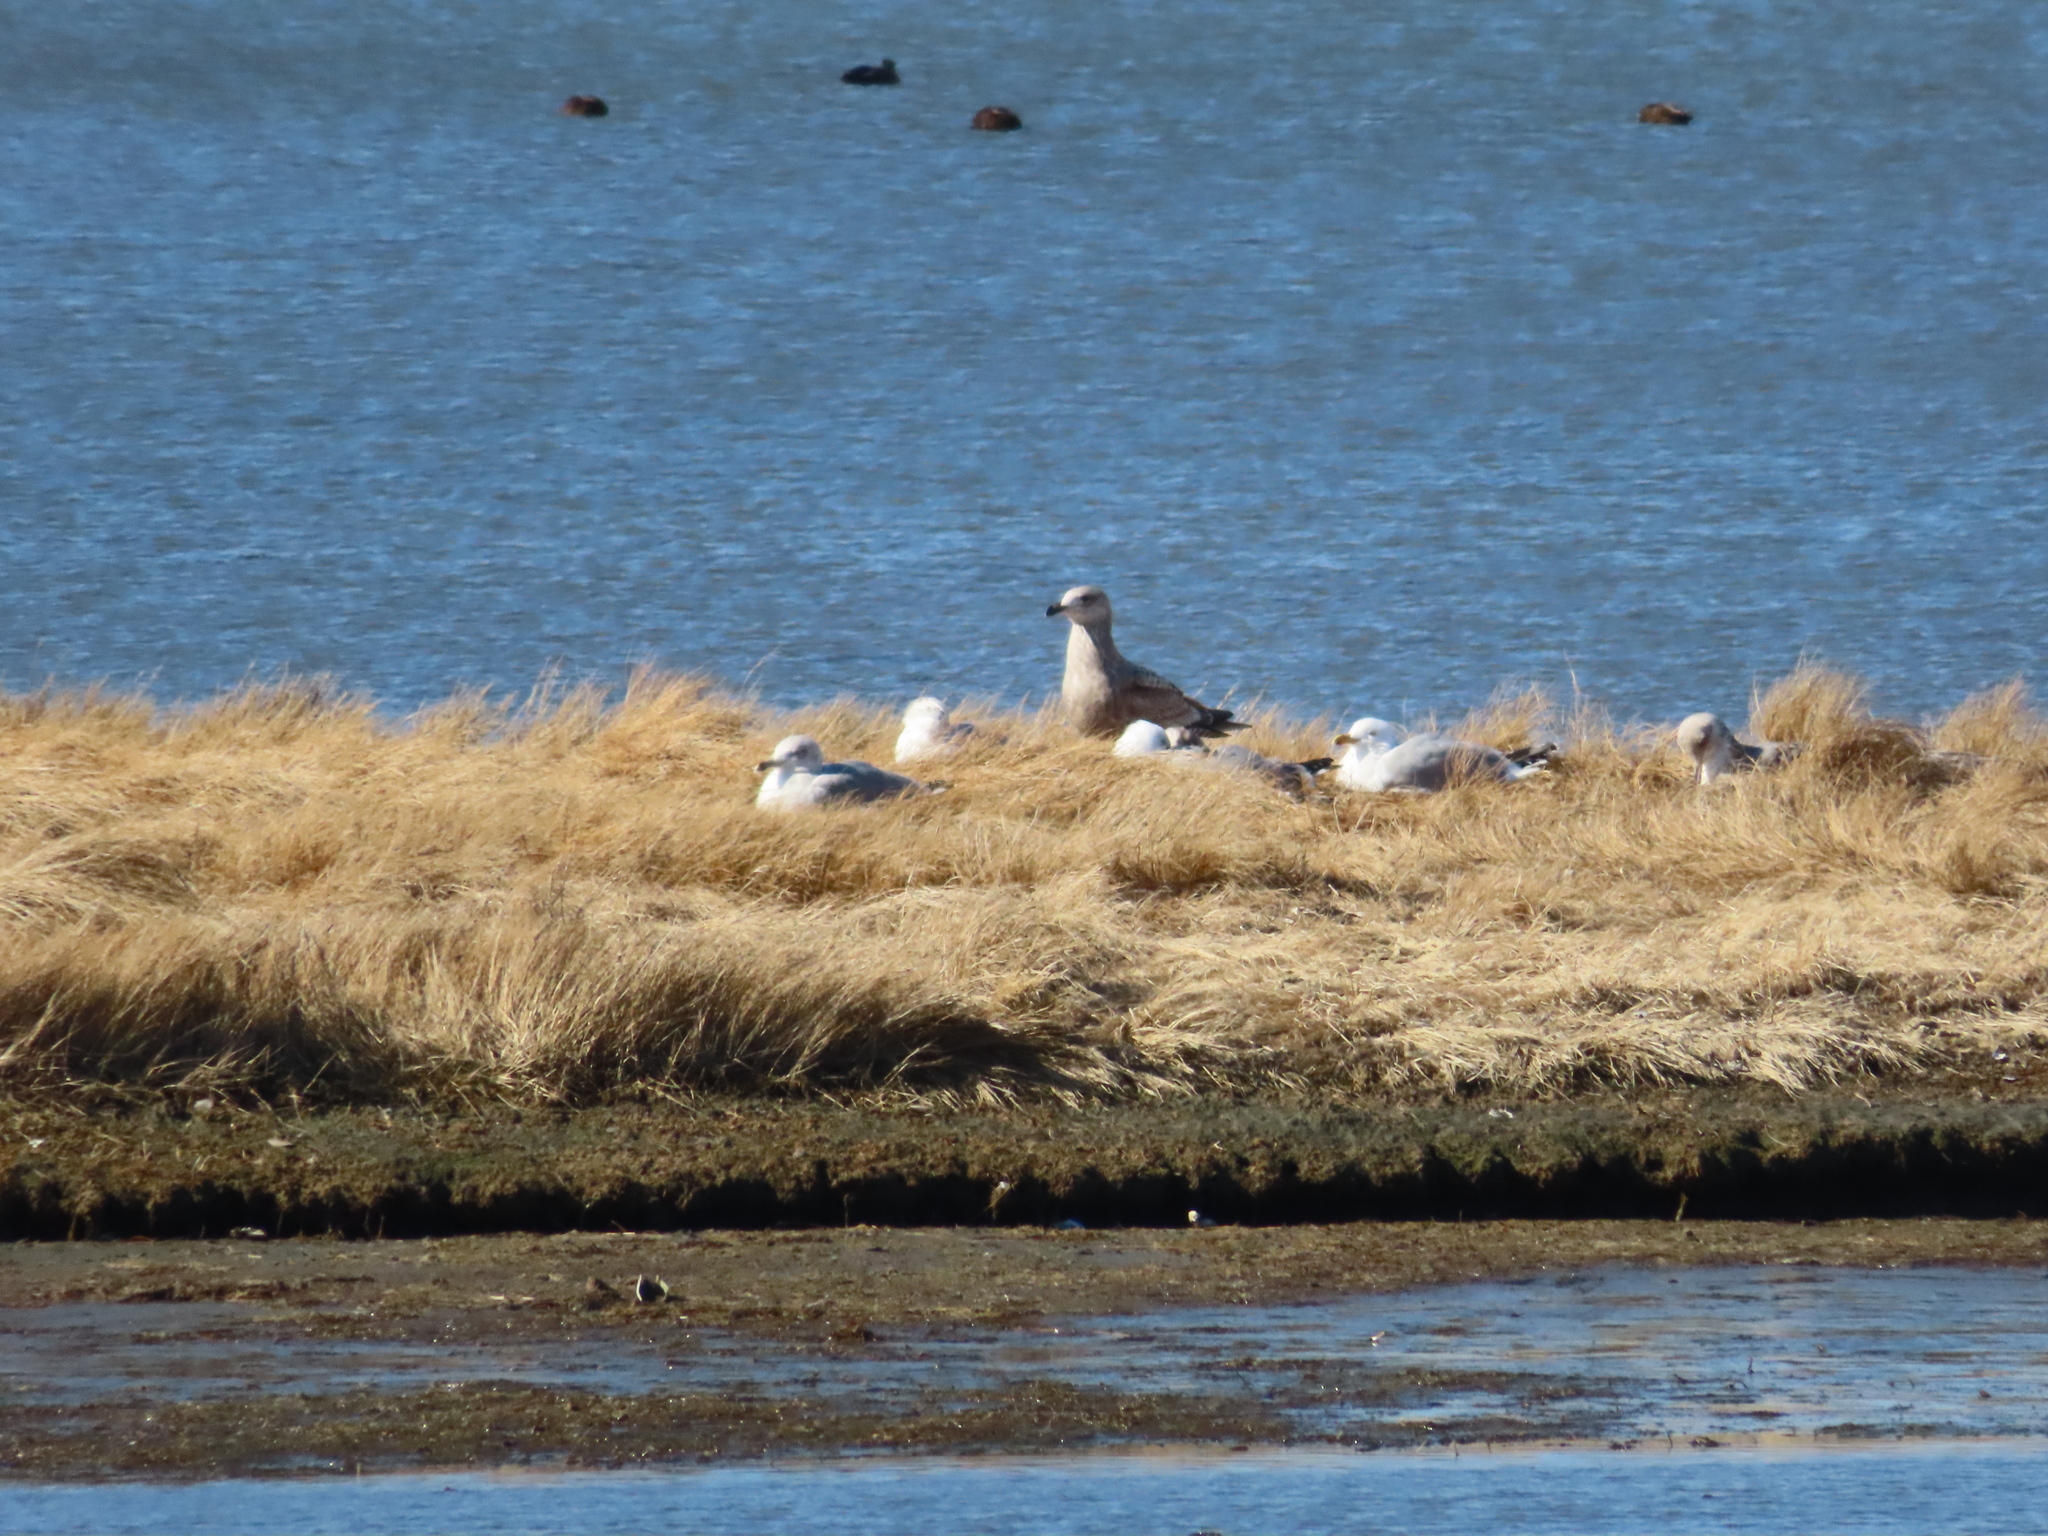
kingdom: Animalia
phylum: Chordata
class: Aves
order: Anseriformes
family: Anatidae
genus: Anas
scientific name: Anas rubripes
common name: American black duck
